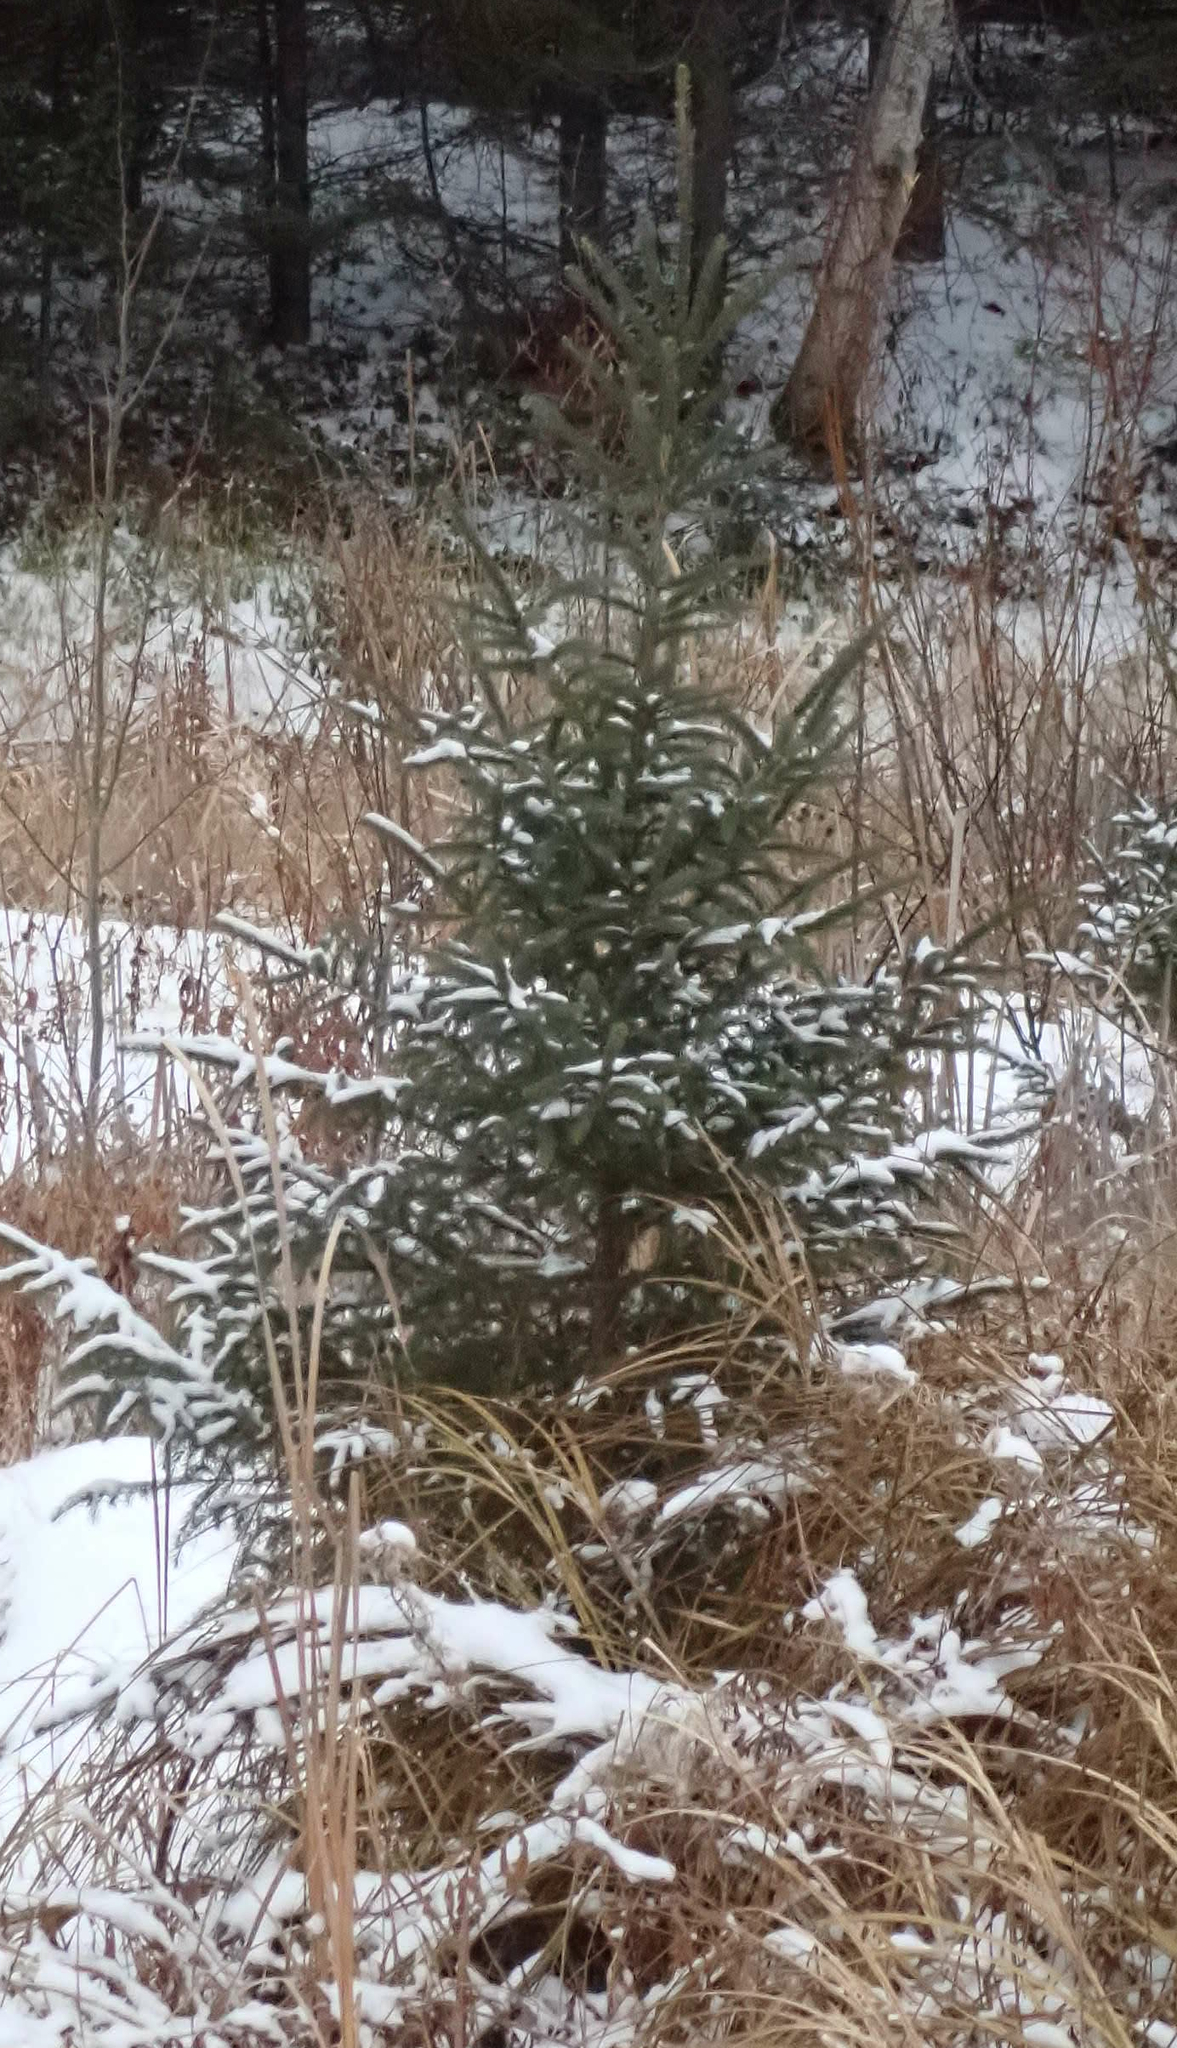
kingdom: Plantae
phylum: Tracheophyta
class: Pinopsida
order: Pinales
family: Pinaceae
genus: Picea
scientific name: Picea glauca
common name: White spruce
